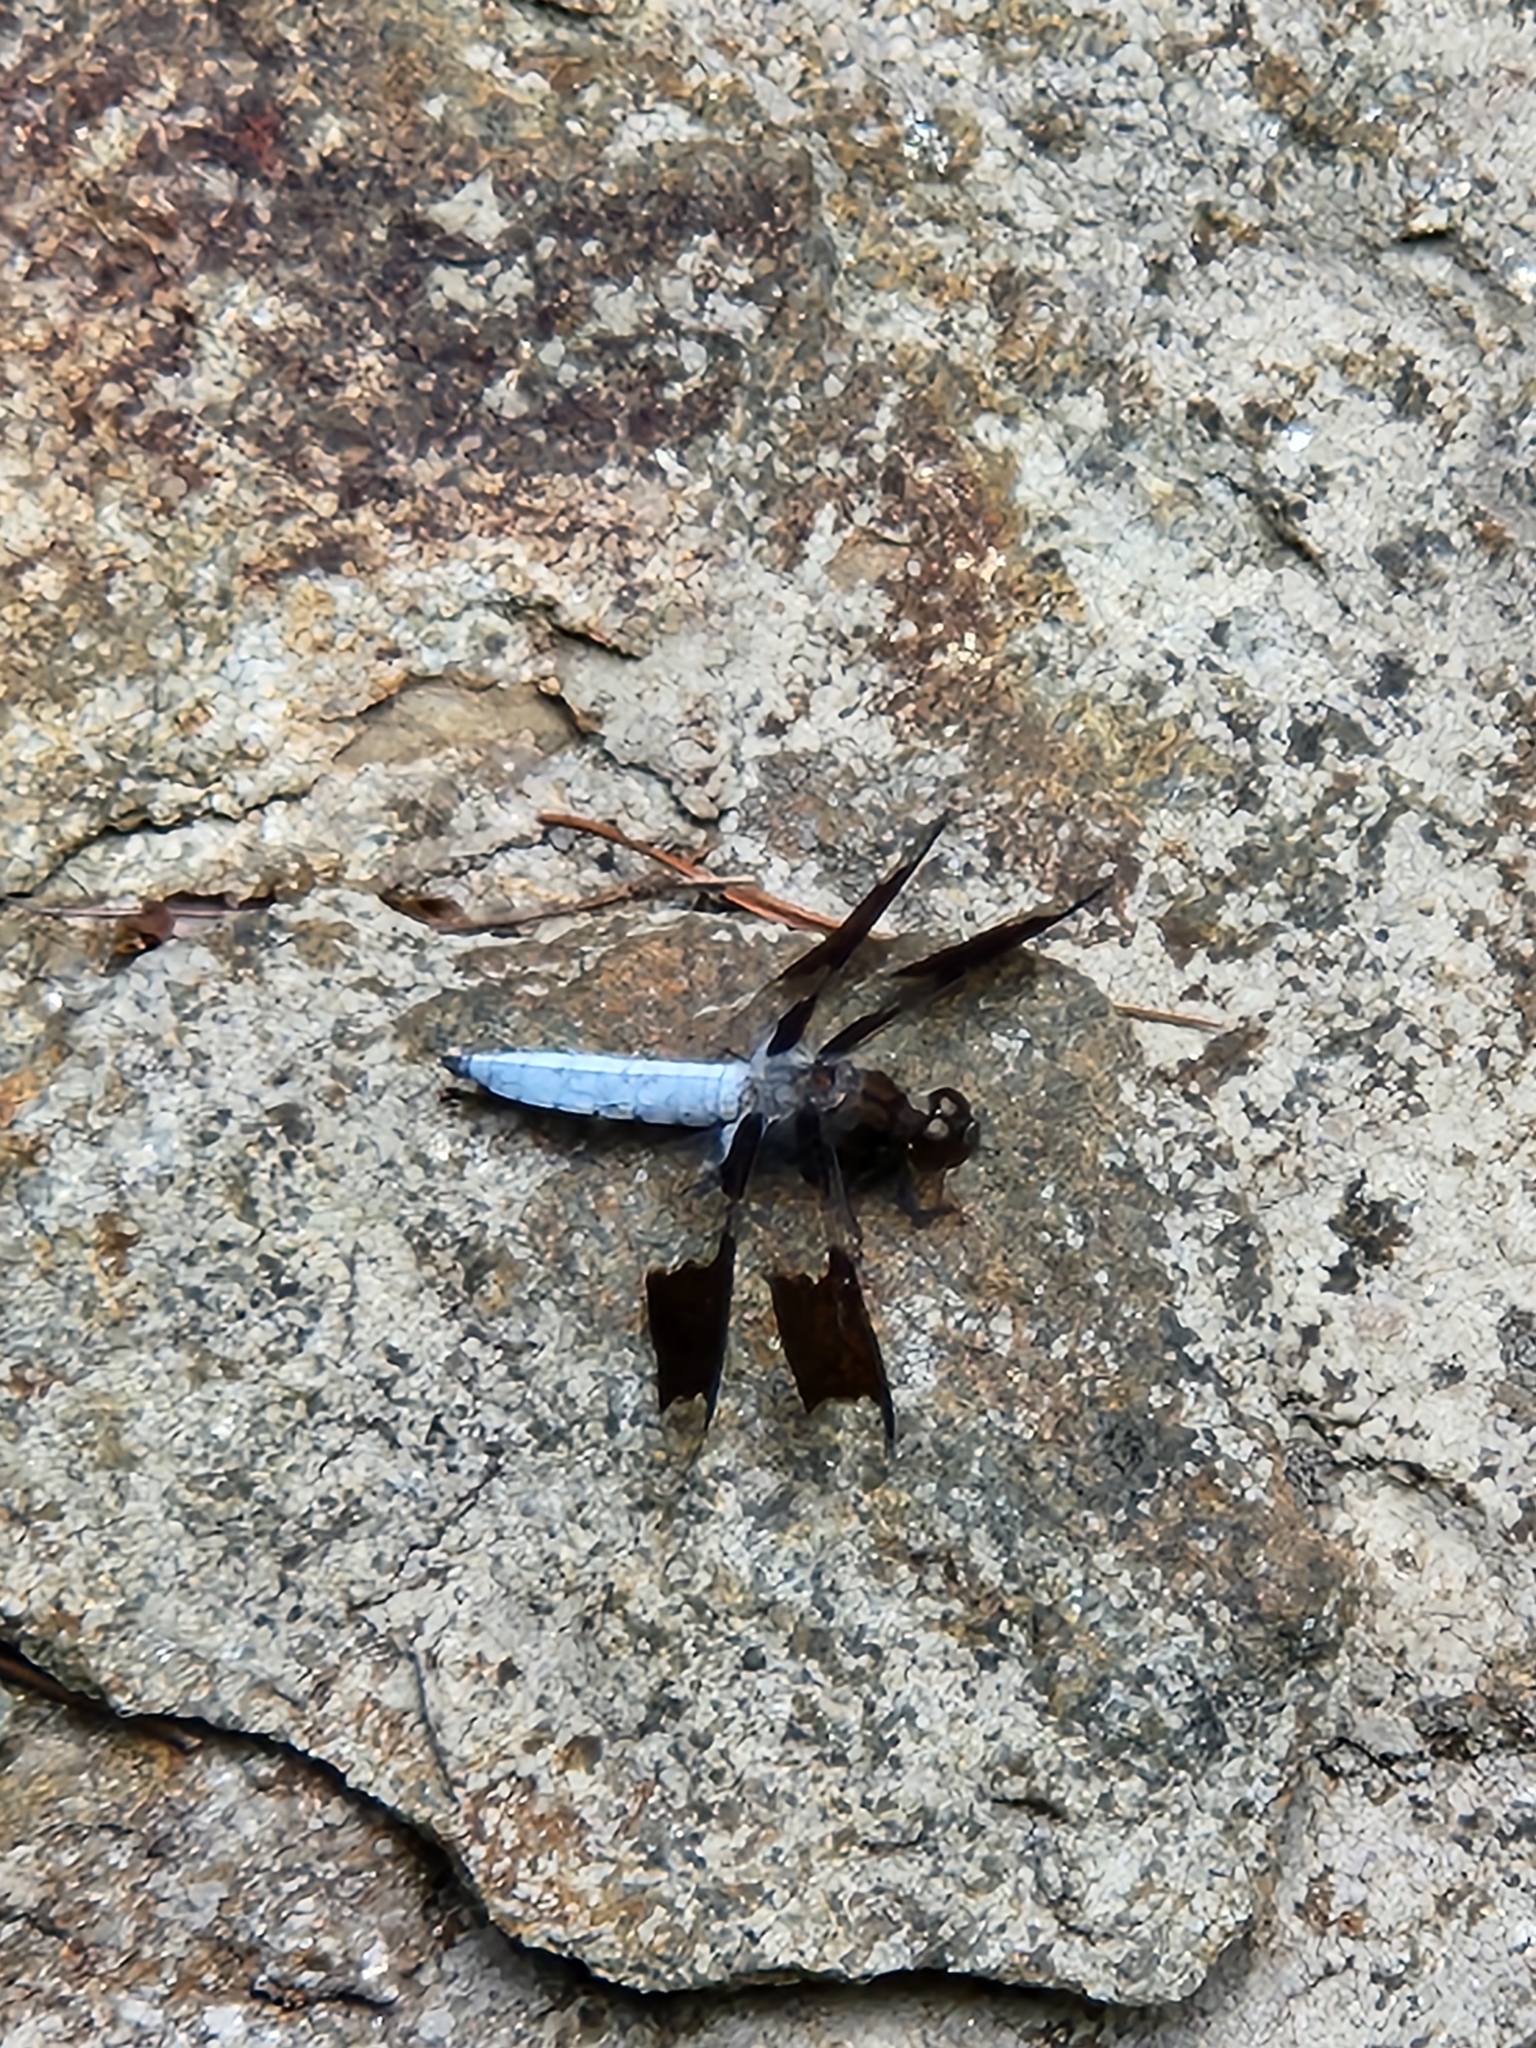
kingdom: Animalia
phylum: Arthropoda
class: Insecta
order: Odonata
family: Libellulidae
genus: Plathemis
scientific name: Plathemis lydia
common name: Common whitetail
